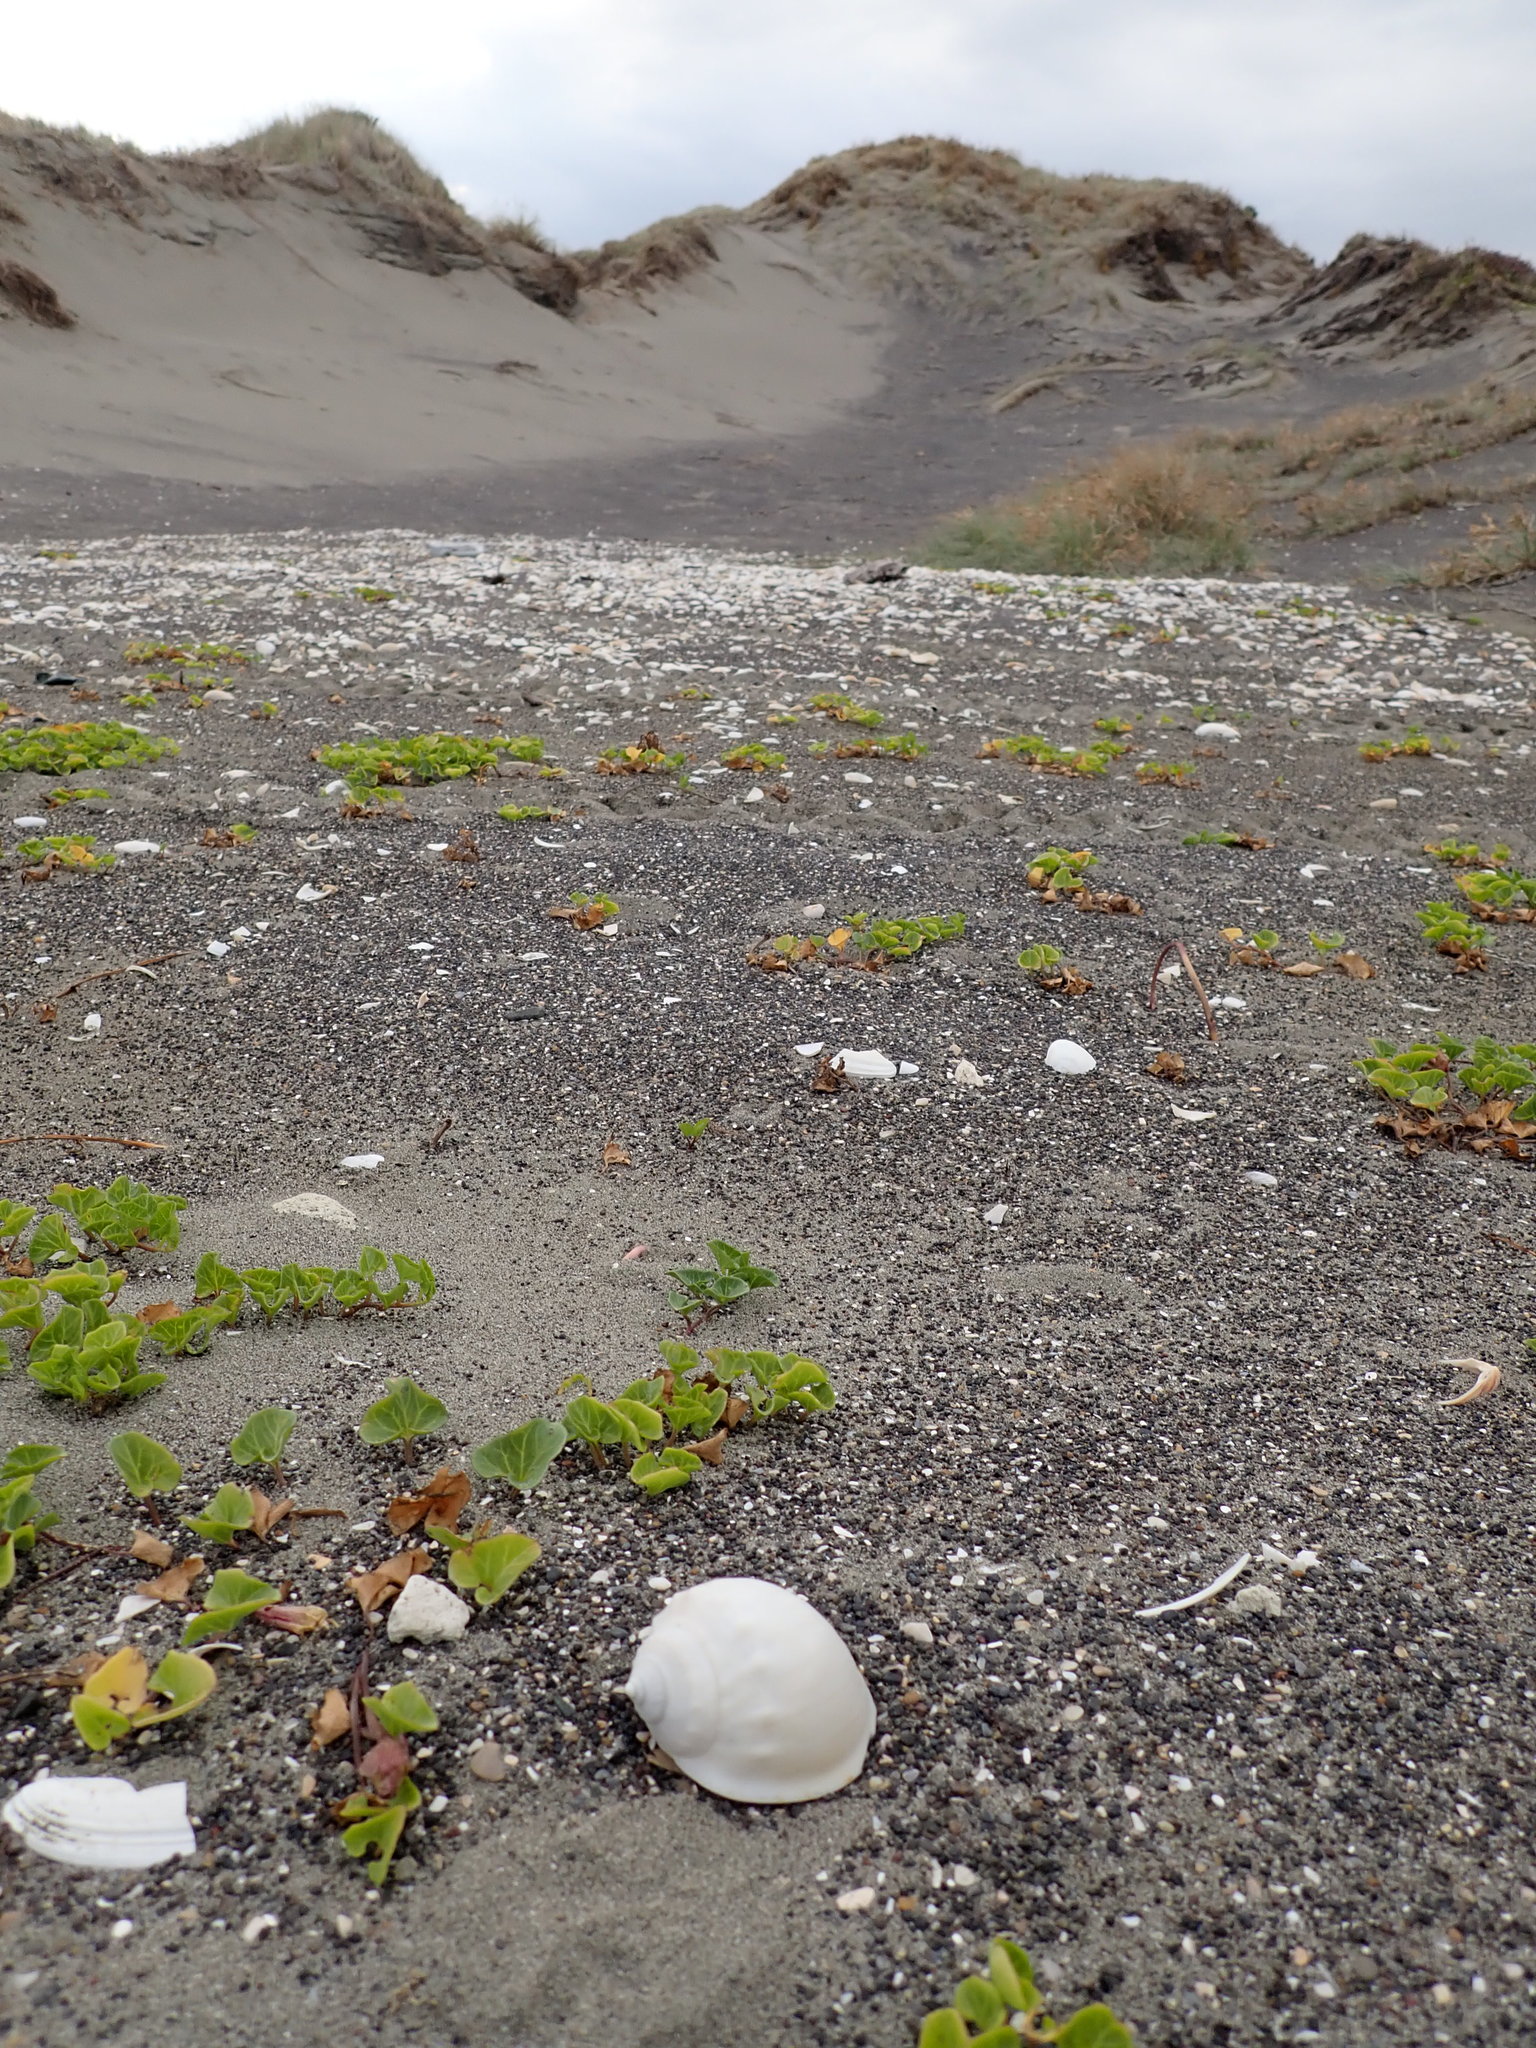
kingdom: Animalia
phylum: Mollusca
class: Gastropoda
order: Littorinimorpha
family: Cassidae
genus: Semicassis
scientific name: Semicassis pyrum
